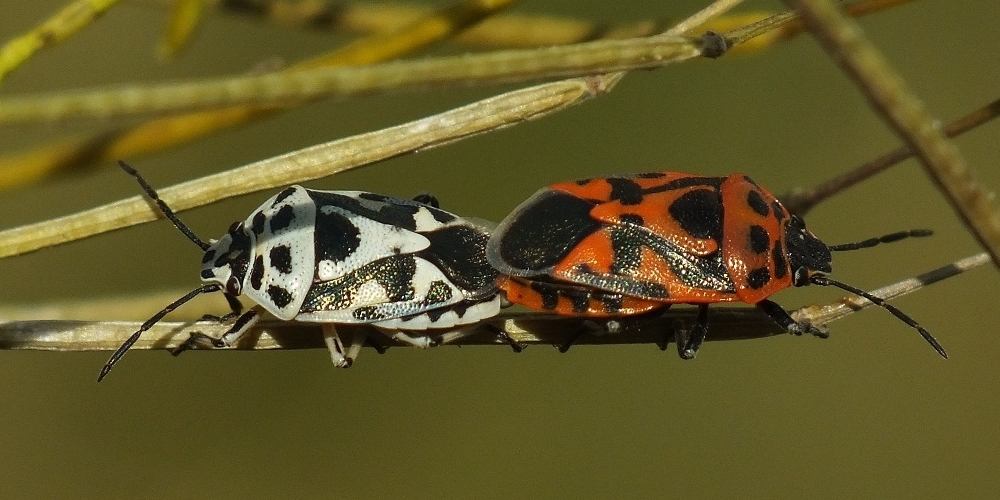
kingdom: Animalia
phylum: Arthropoda
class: Insecta
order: Hemiptera
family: Pentatomidae
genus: Eurydema
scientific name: Eurydema ornata
